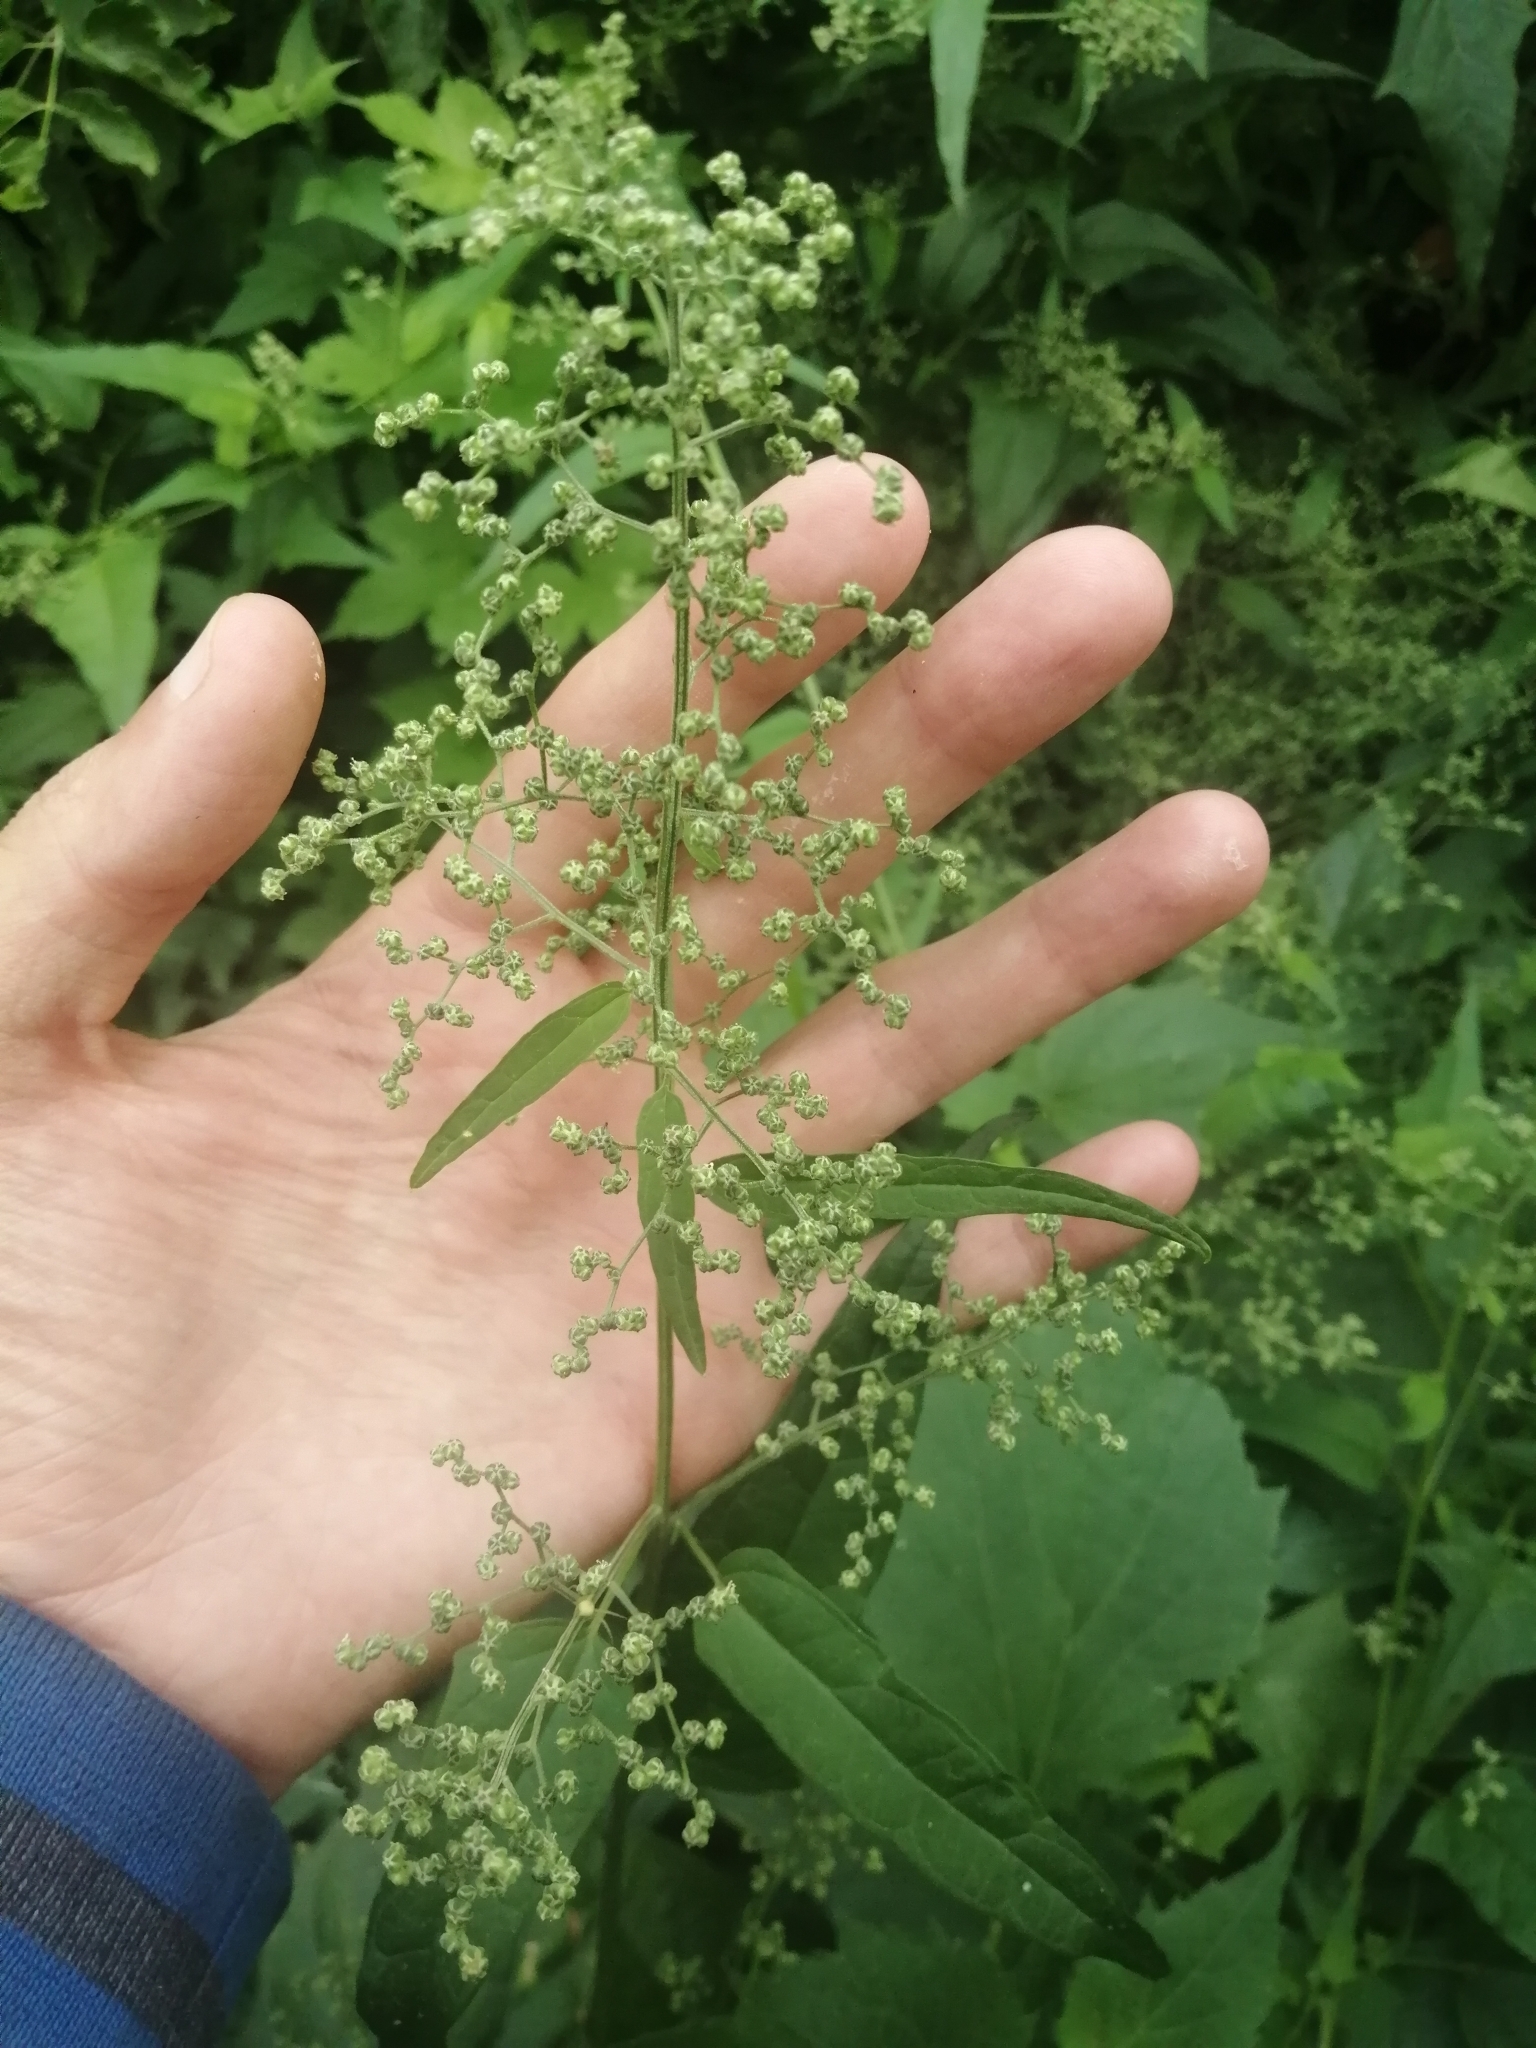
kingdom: Plantae
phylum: Tracheophyta
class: Magnoliopsida
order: Caryophyllales
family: Amaranthaceae
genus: Chenopodiastrum
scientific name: Chenopodiastrum hybridum
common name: Mapleleaf goosefoot
